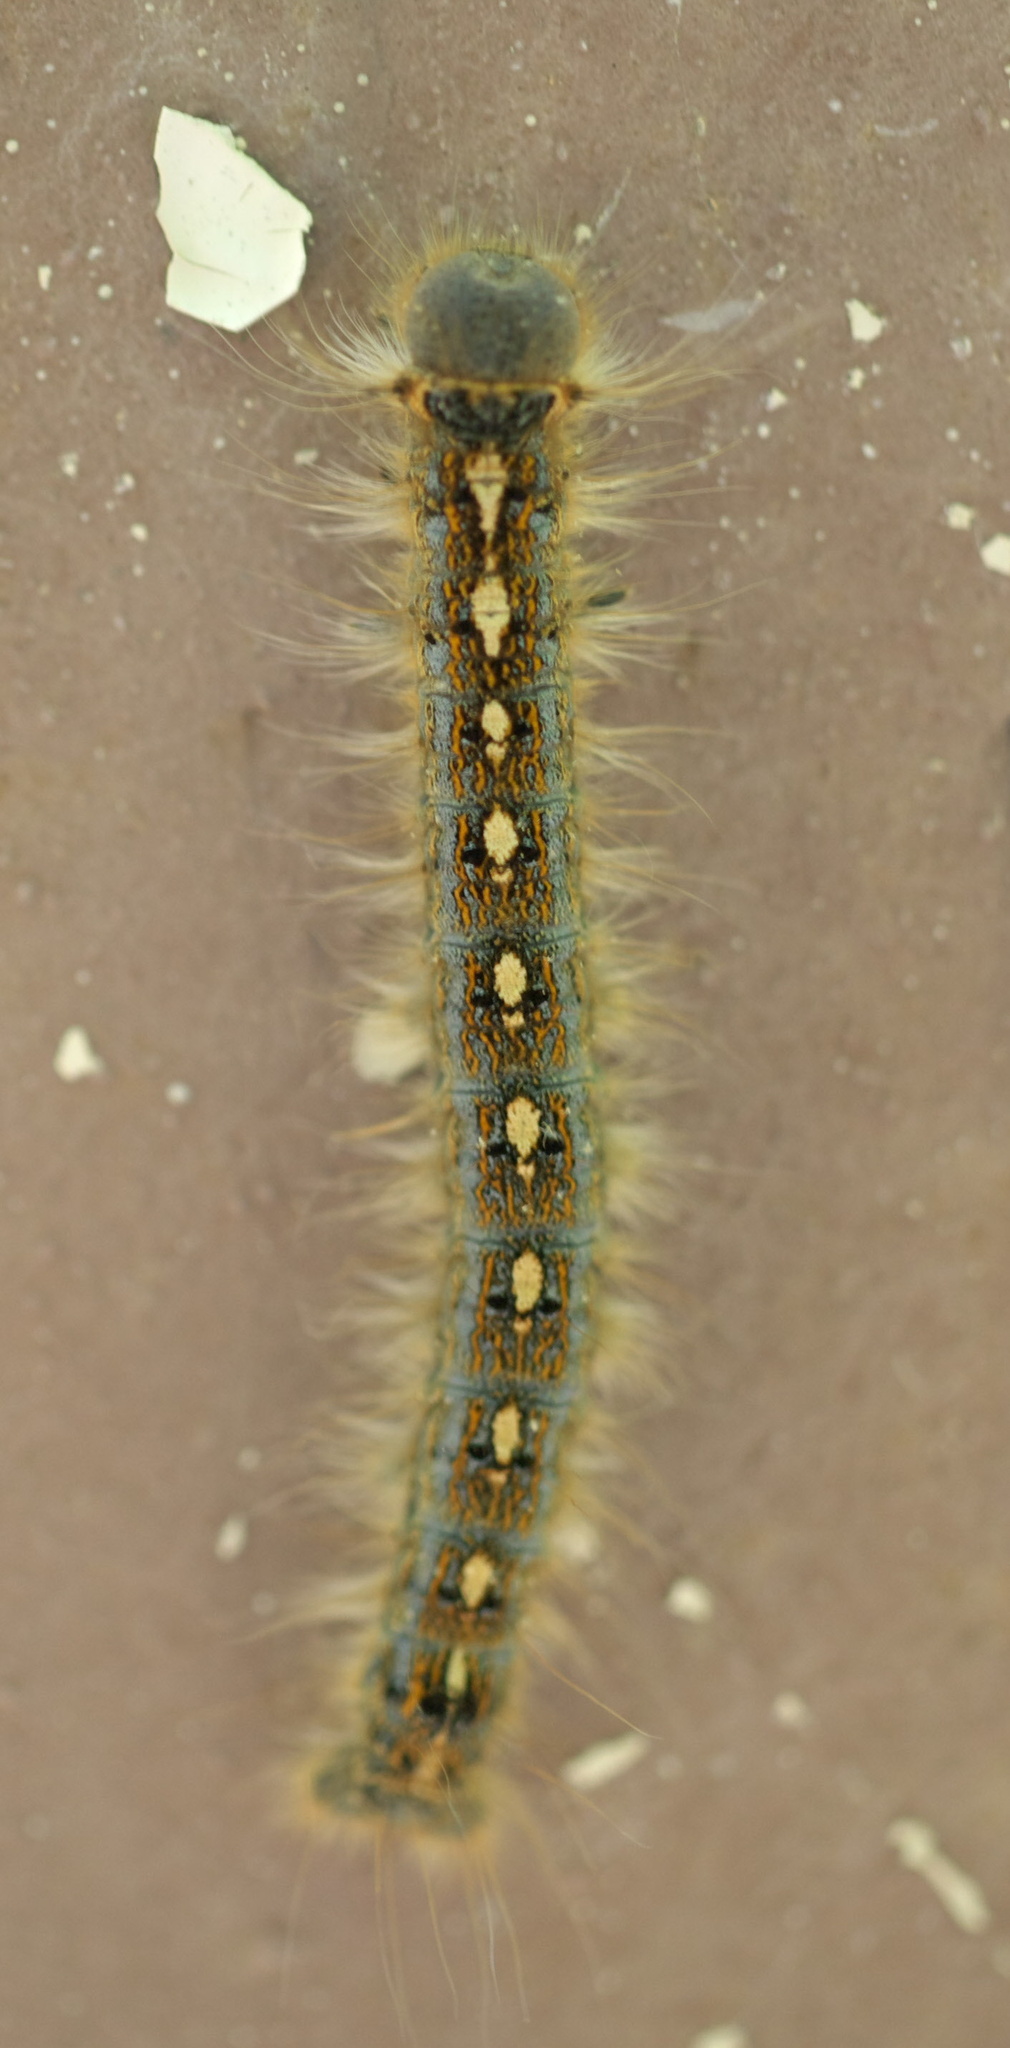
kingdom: Animalia
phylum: Arthropoda
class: Insecta
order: Lepidoptera
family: Lasiocampidae
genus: Malacosoma
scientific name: Malacosoma disstria
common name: Forest tent caterpillar
